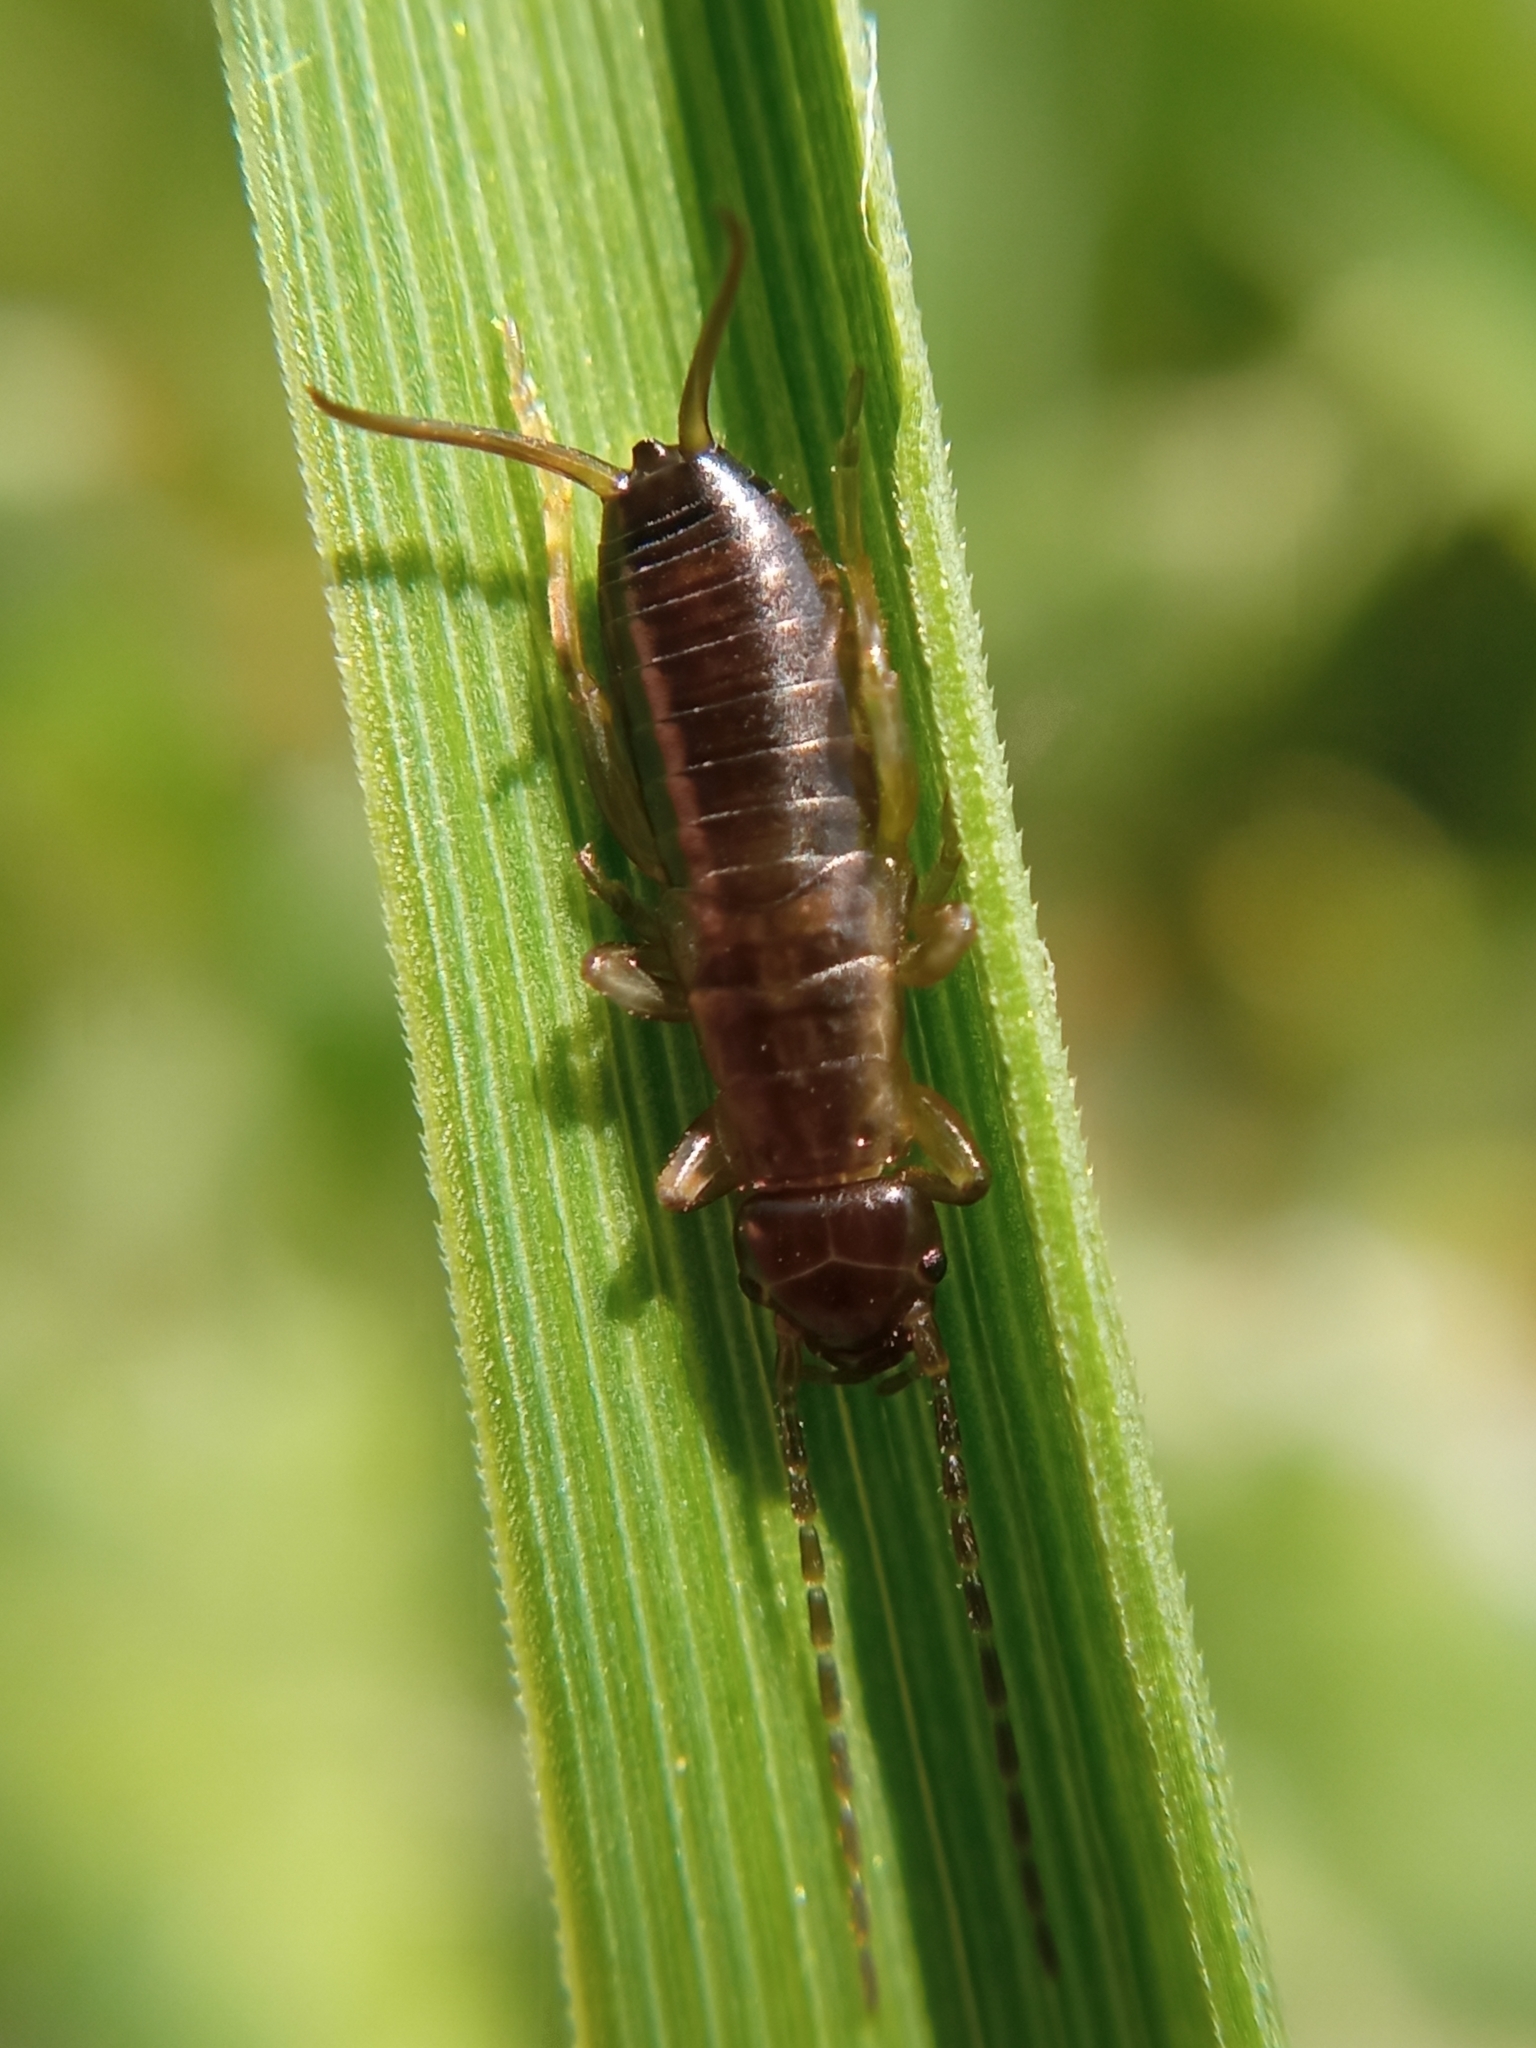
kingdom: Animalia
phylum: Arthropoda
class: Insecta
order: Dermaptera
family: Forficulidae
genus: Forficula
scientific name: Forficula
